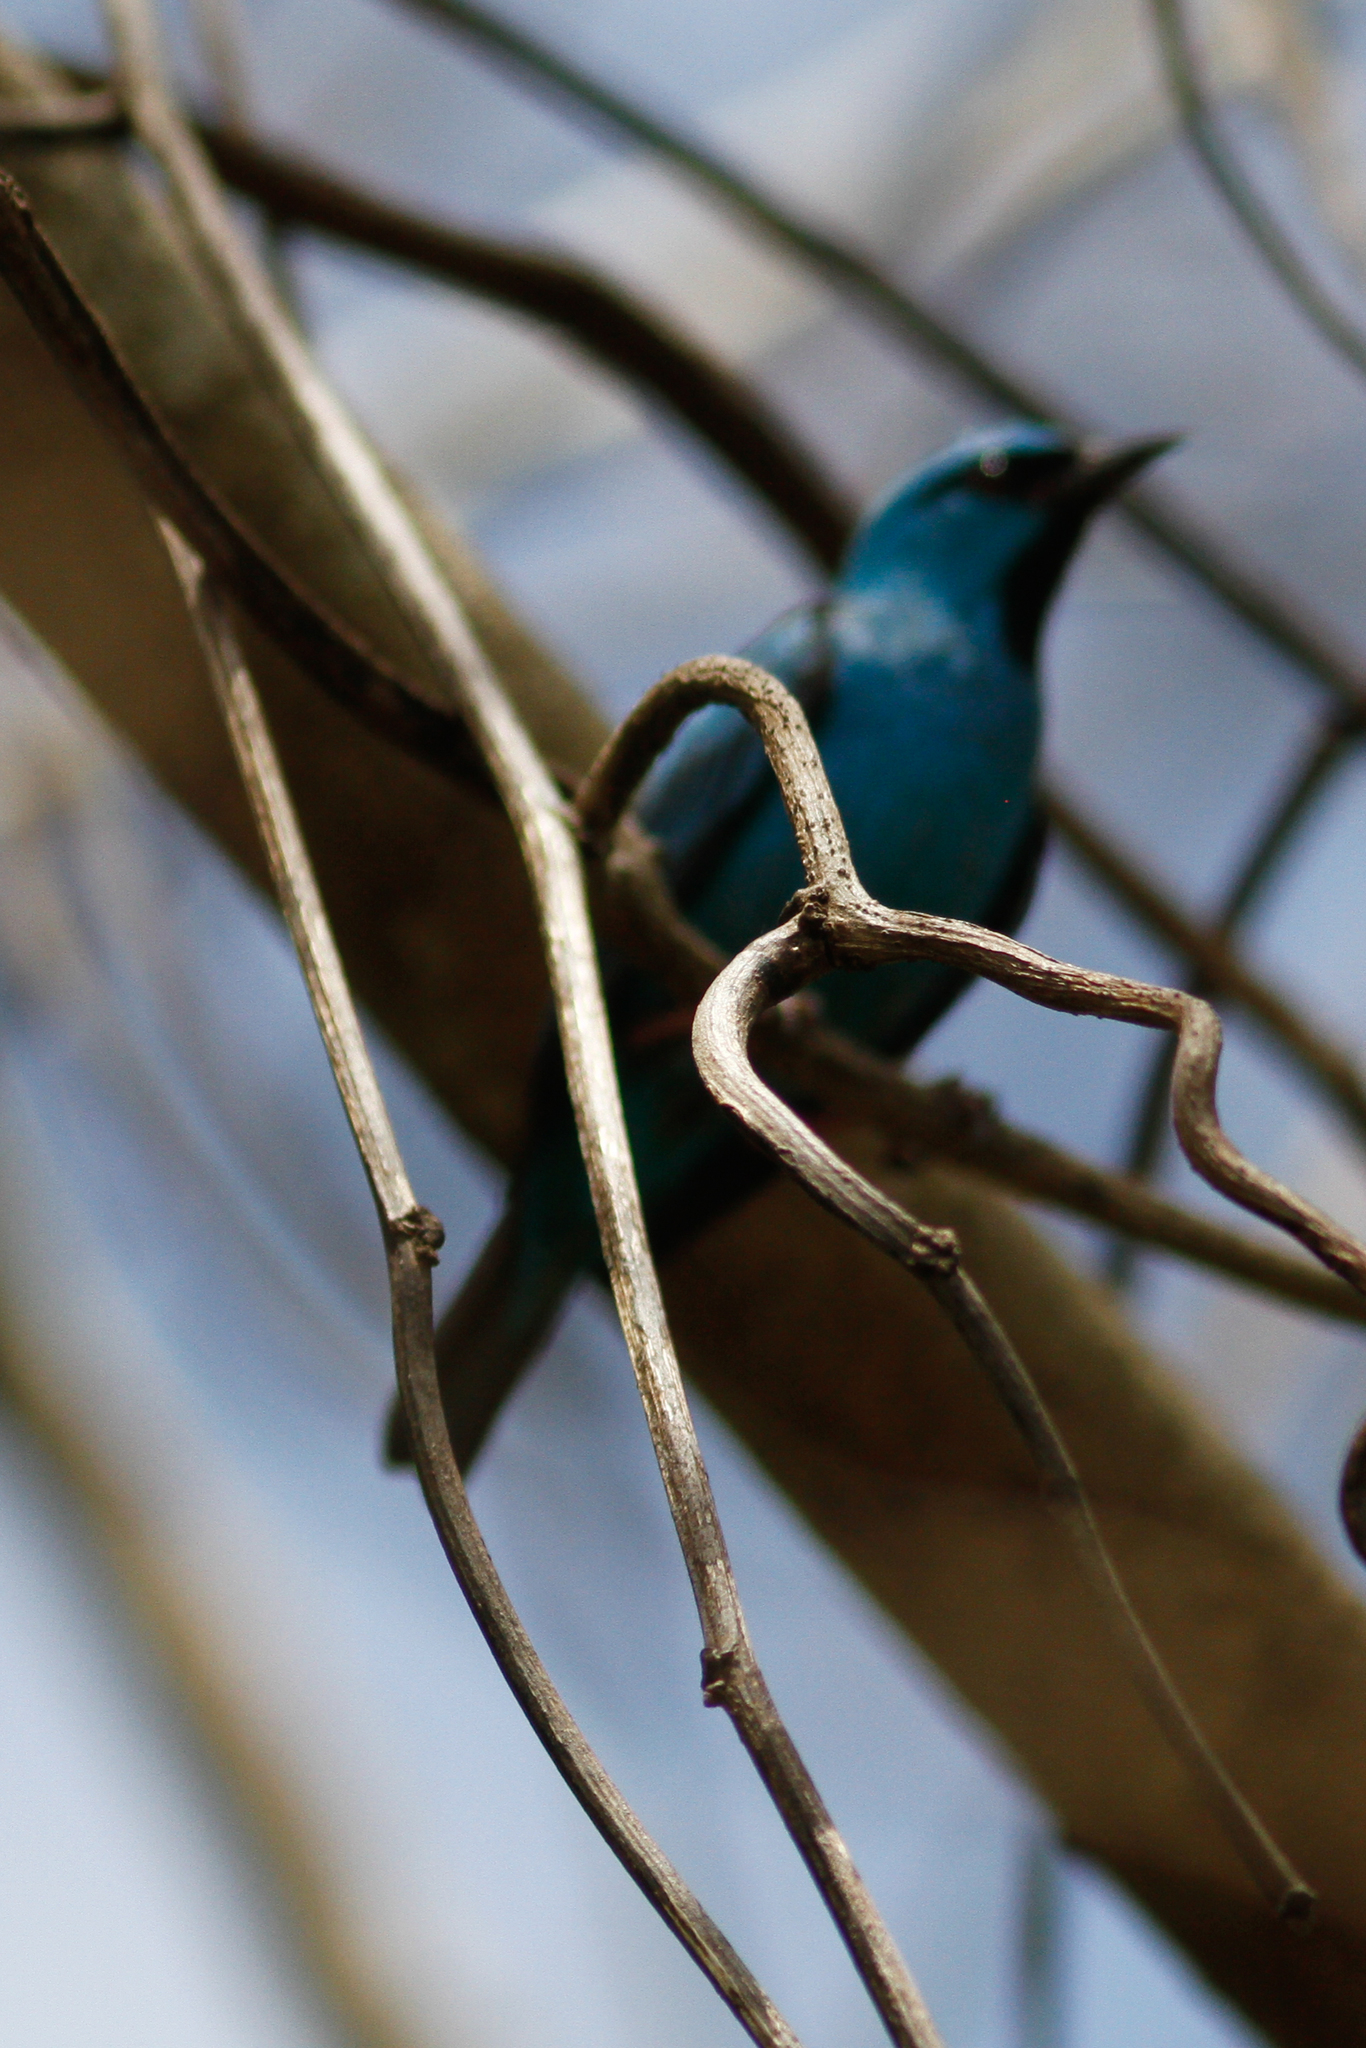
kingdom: Animalia
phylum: Chordata
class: Aves
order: Passeriformes
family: Thraupidae
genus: Dacnis
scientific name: Dacnis cayana
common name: Blue dacnis
